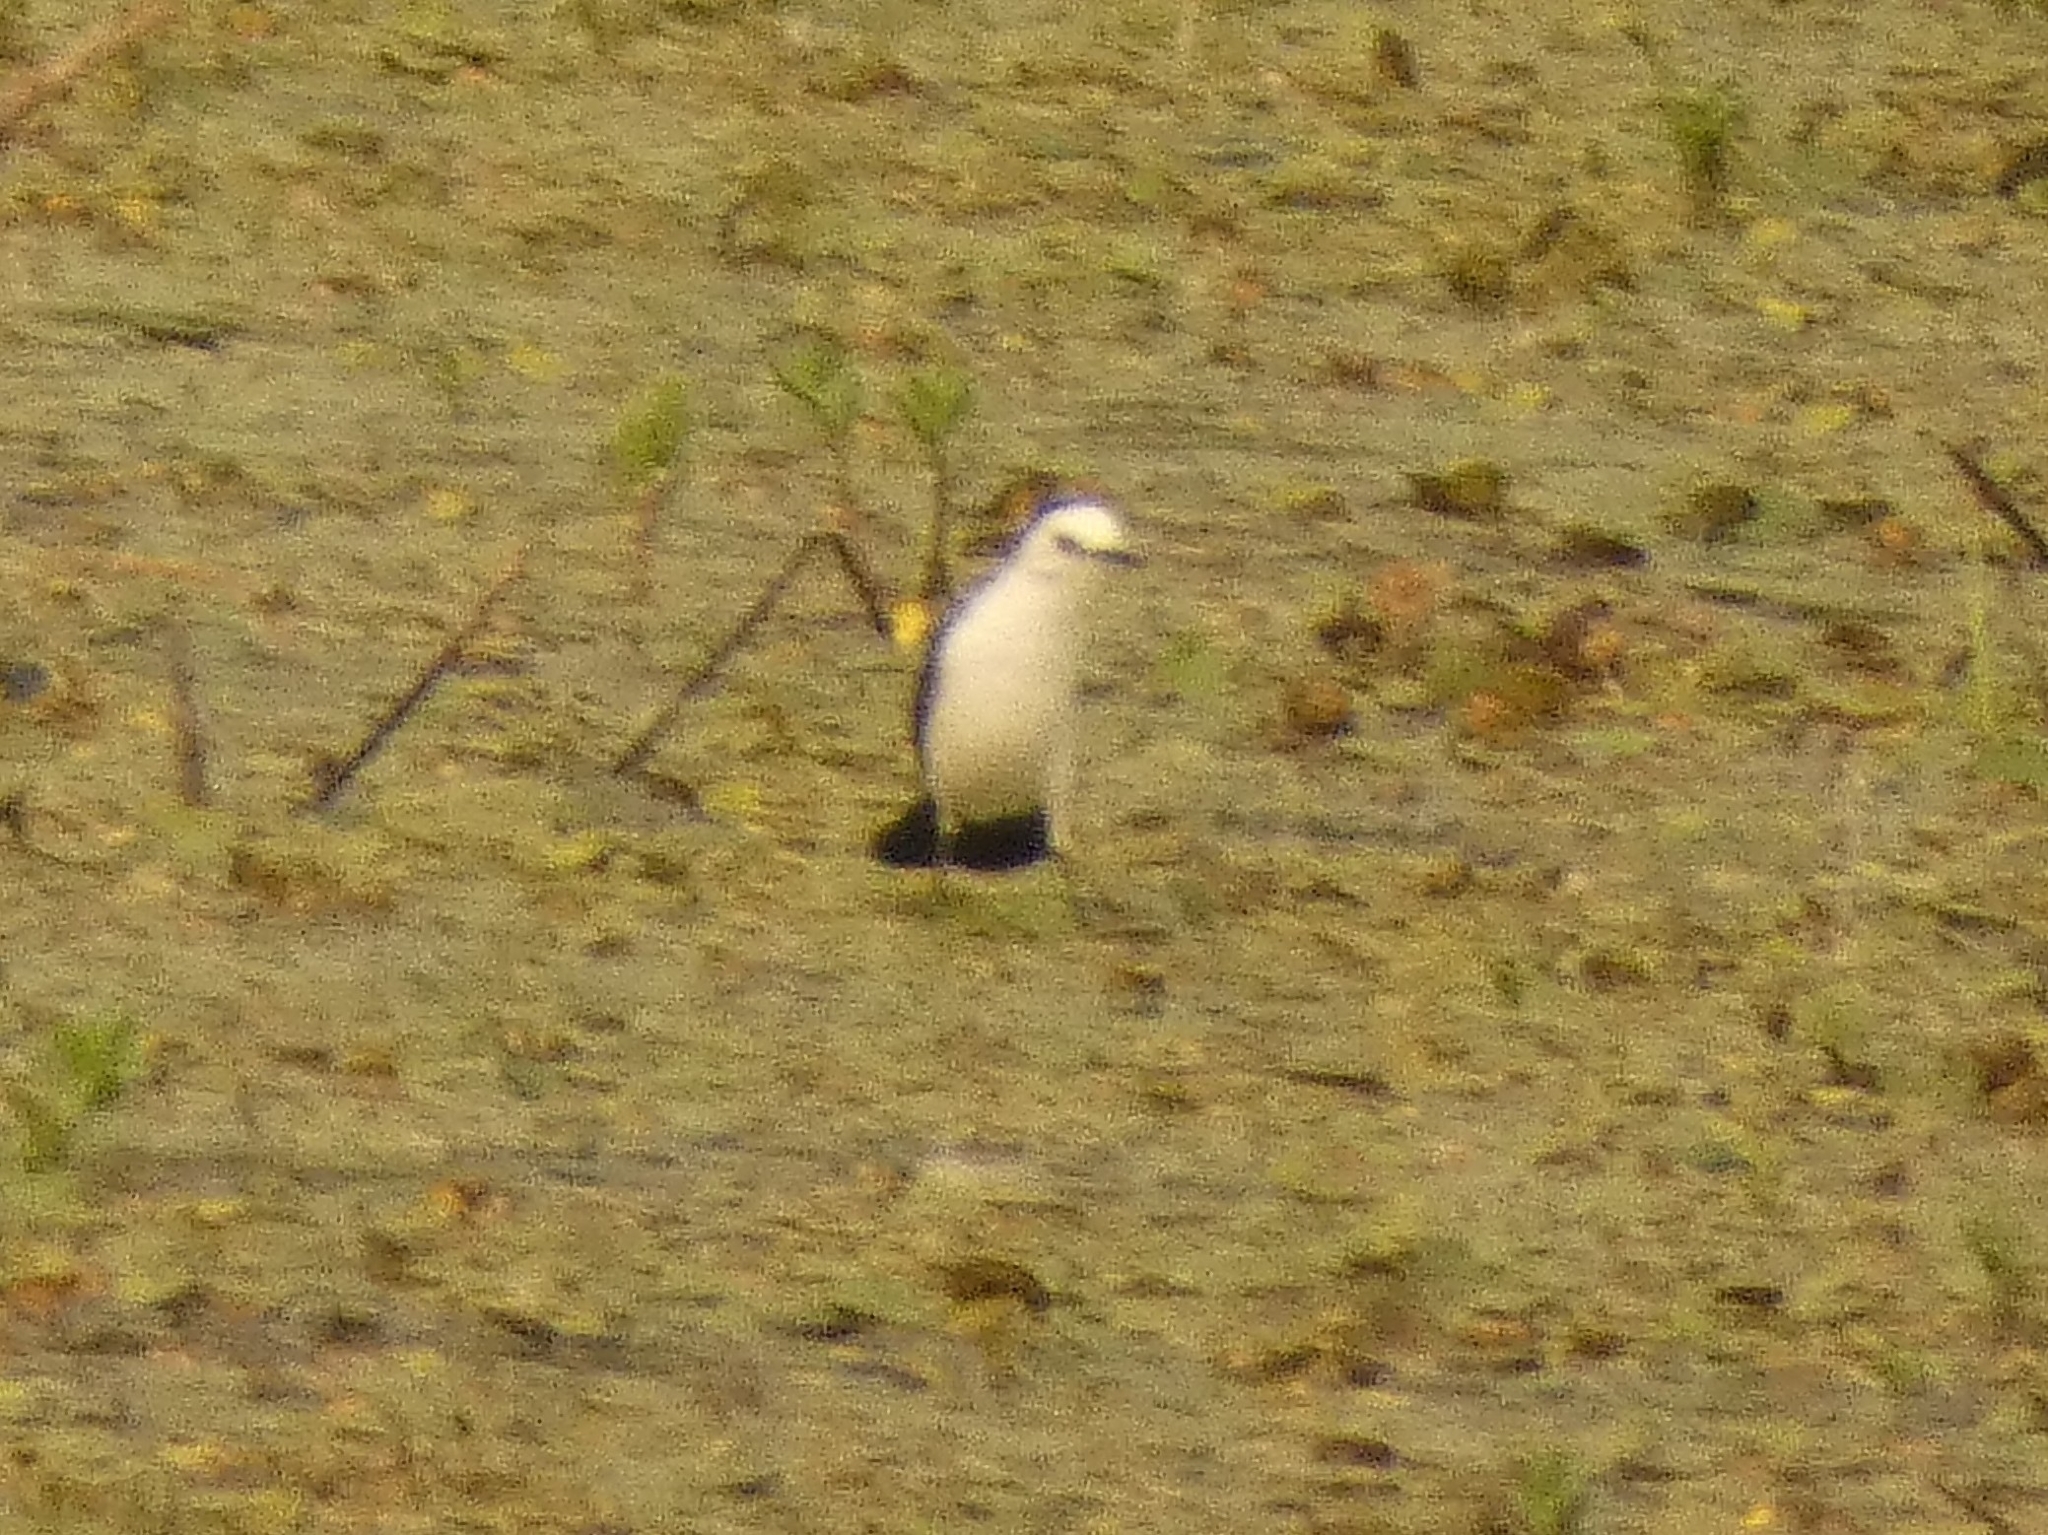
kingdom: Animalia
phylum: Chordata
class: Aves
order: Passeriformes
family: Tyrannidae
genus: Fluvicola
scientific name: Fluvicola pica
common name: Pied water-tyrant
